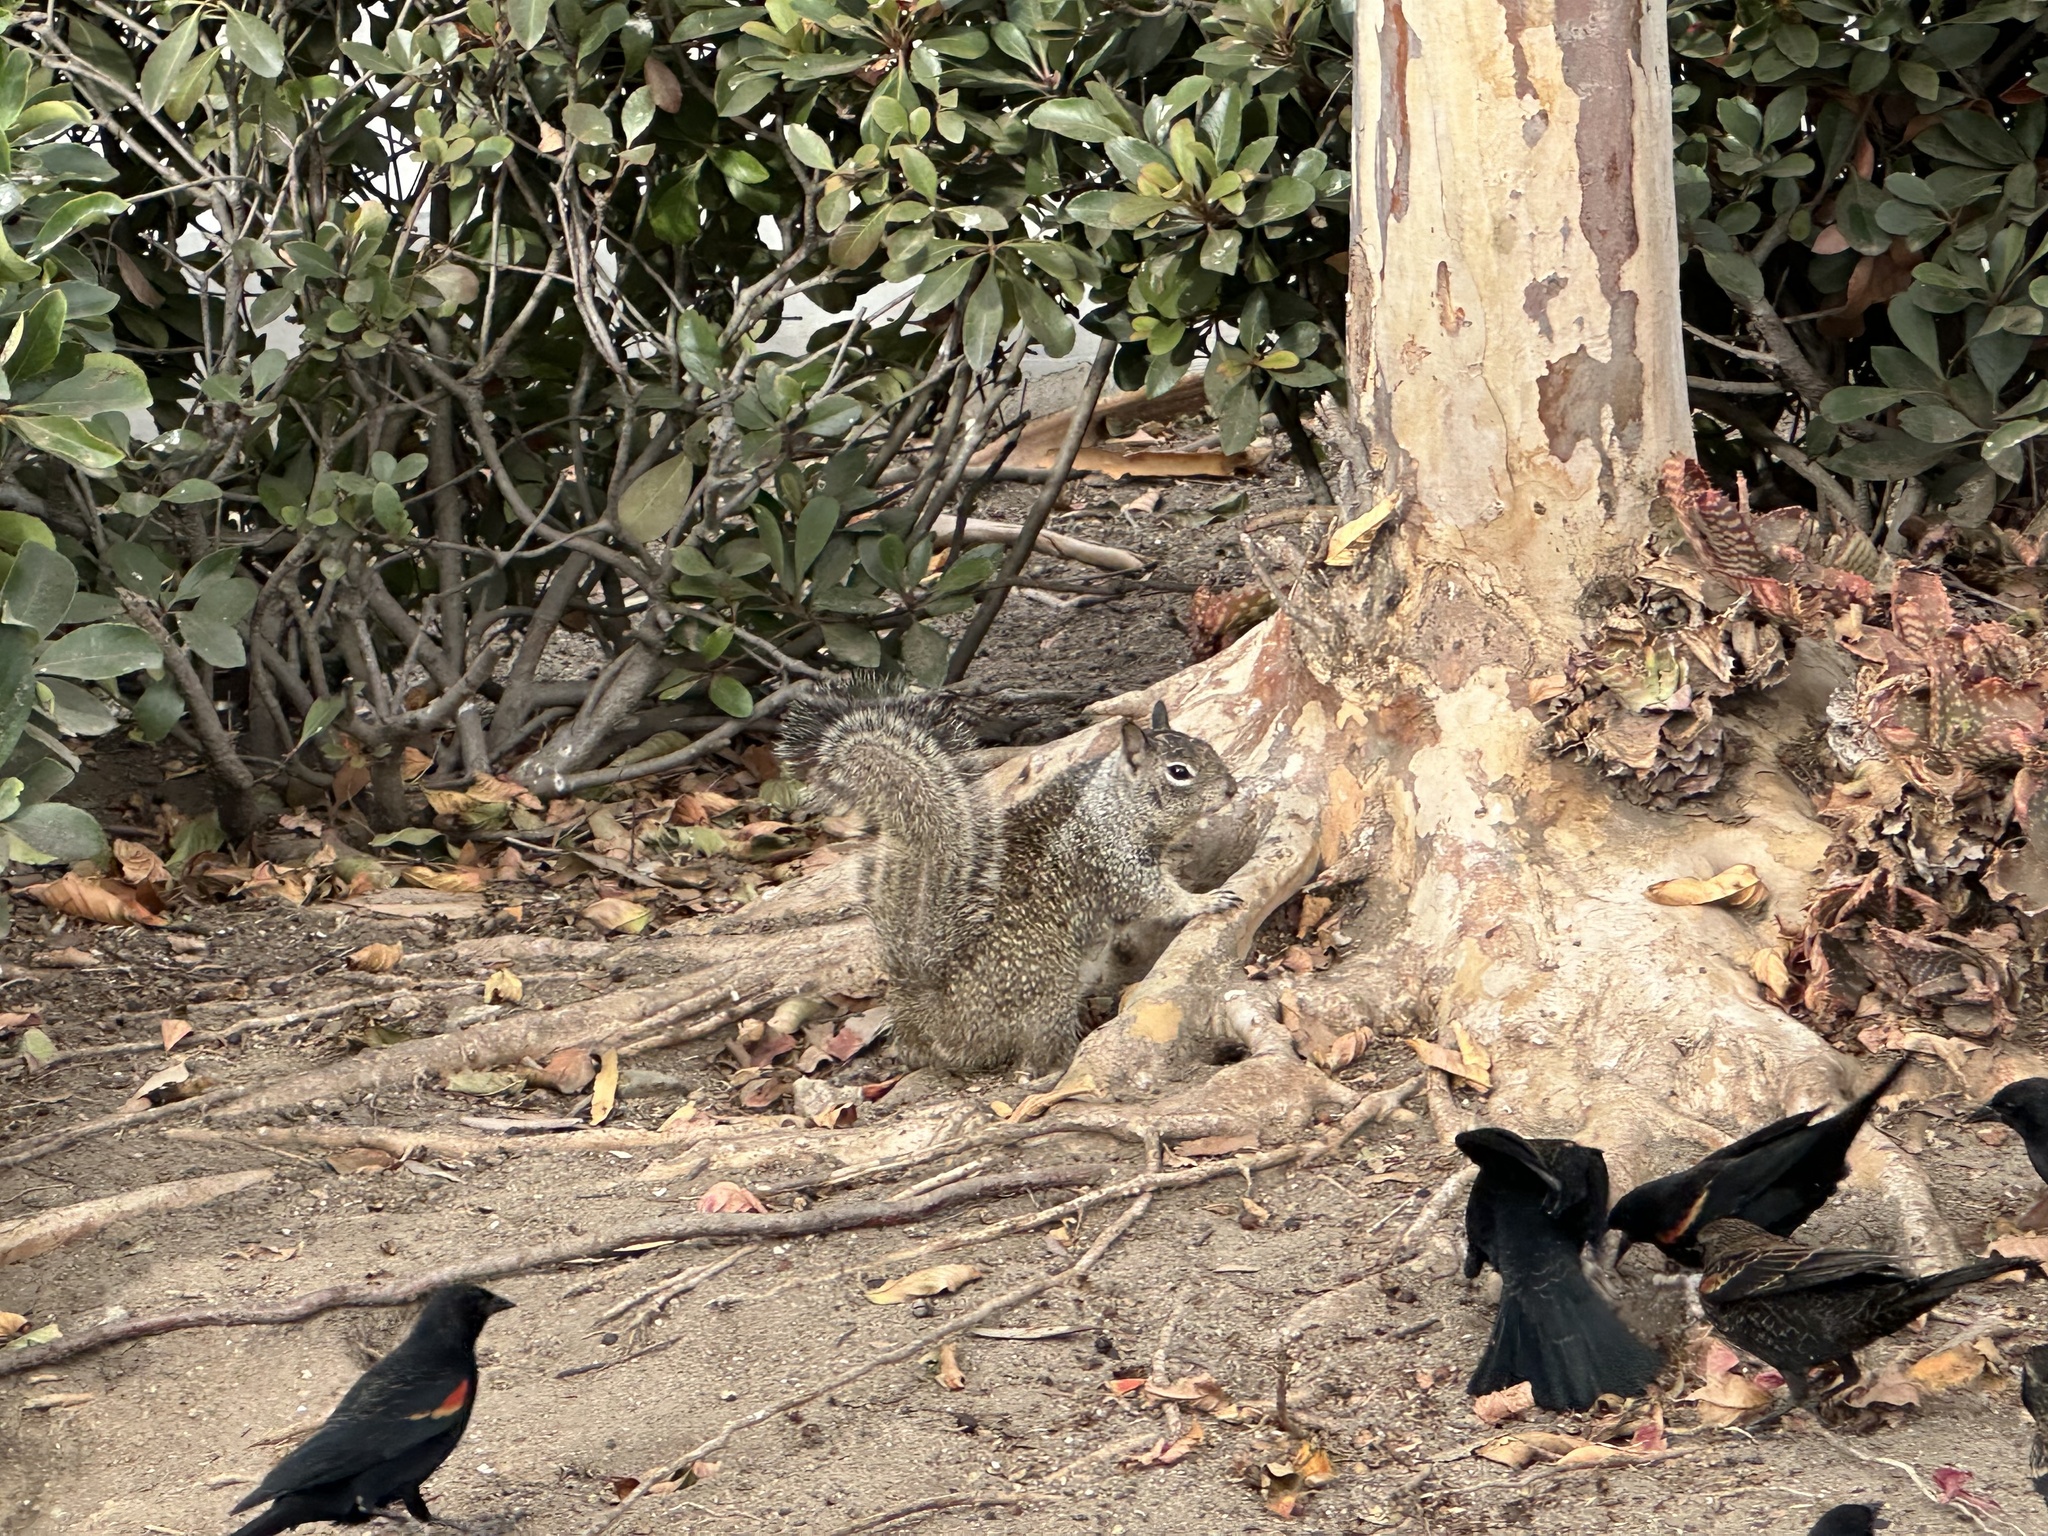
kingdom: Animalia
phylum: Chordata
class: Mammalia
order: Rodentia
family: Sciuridae
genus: Otospermophilus
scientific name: Otospermophilus beecheyi
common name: California ground squirrel
